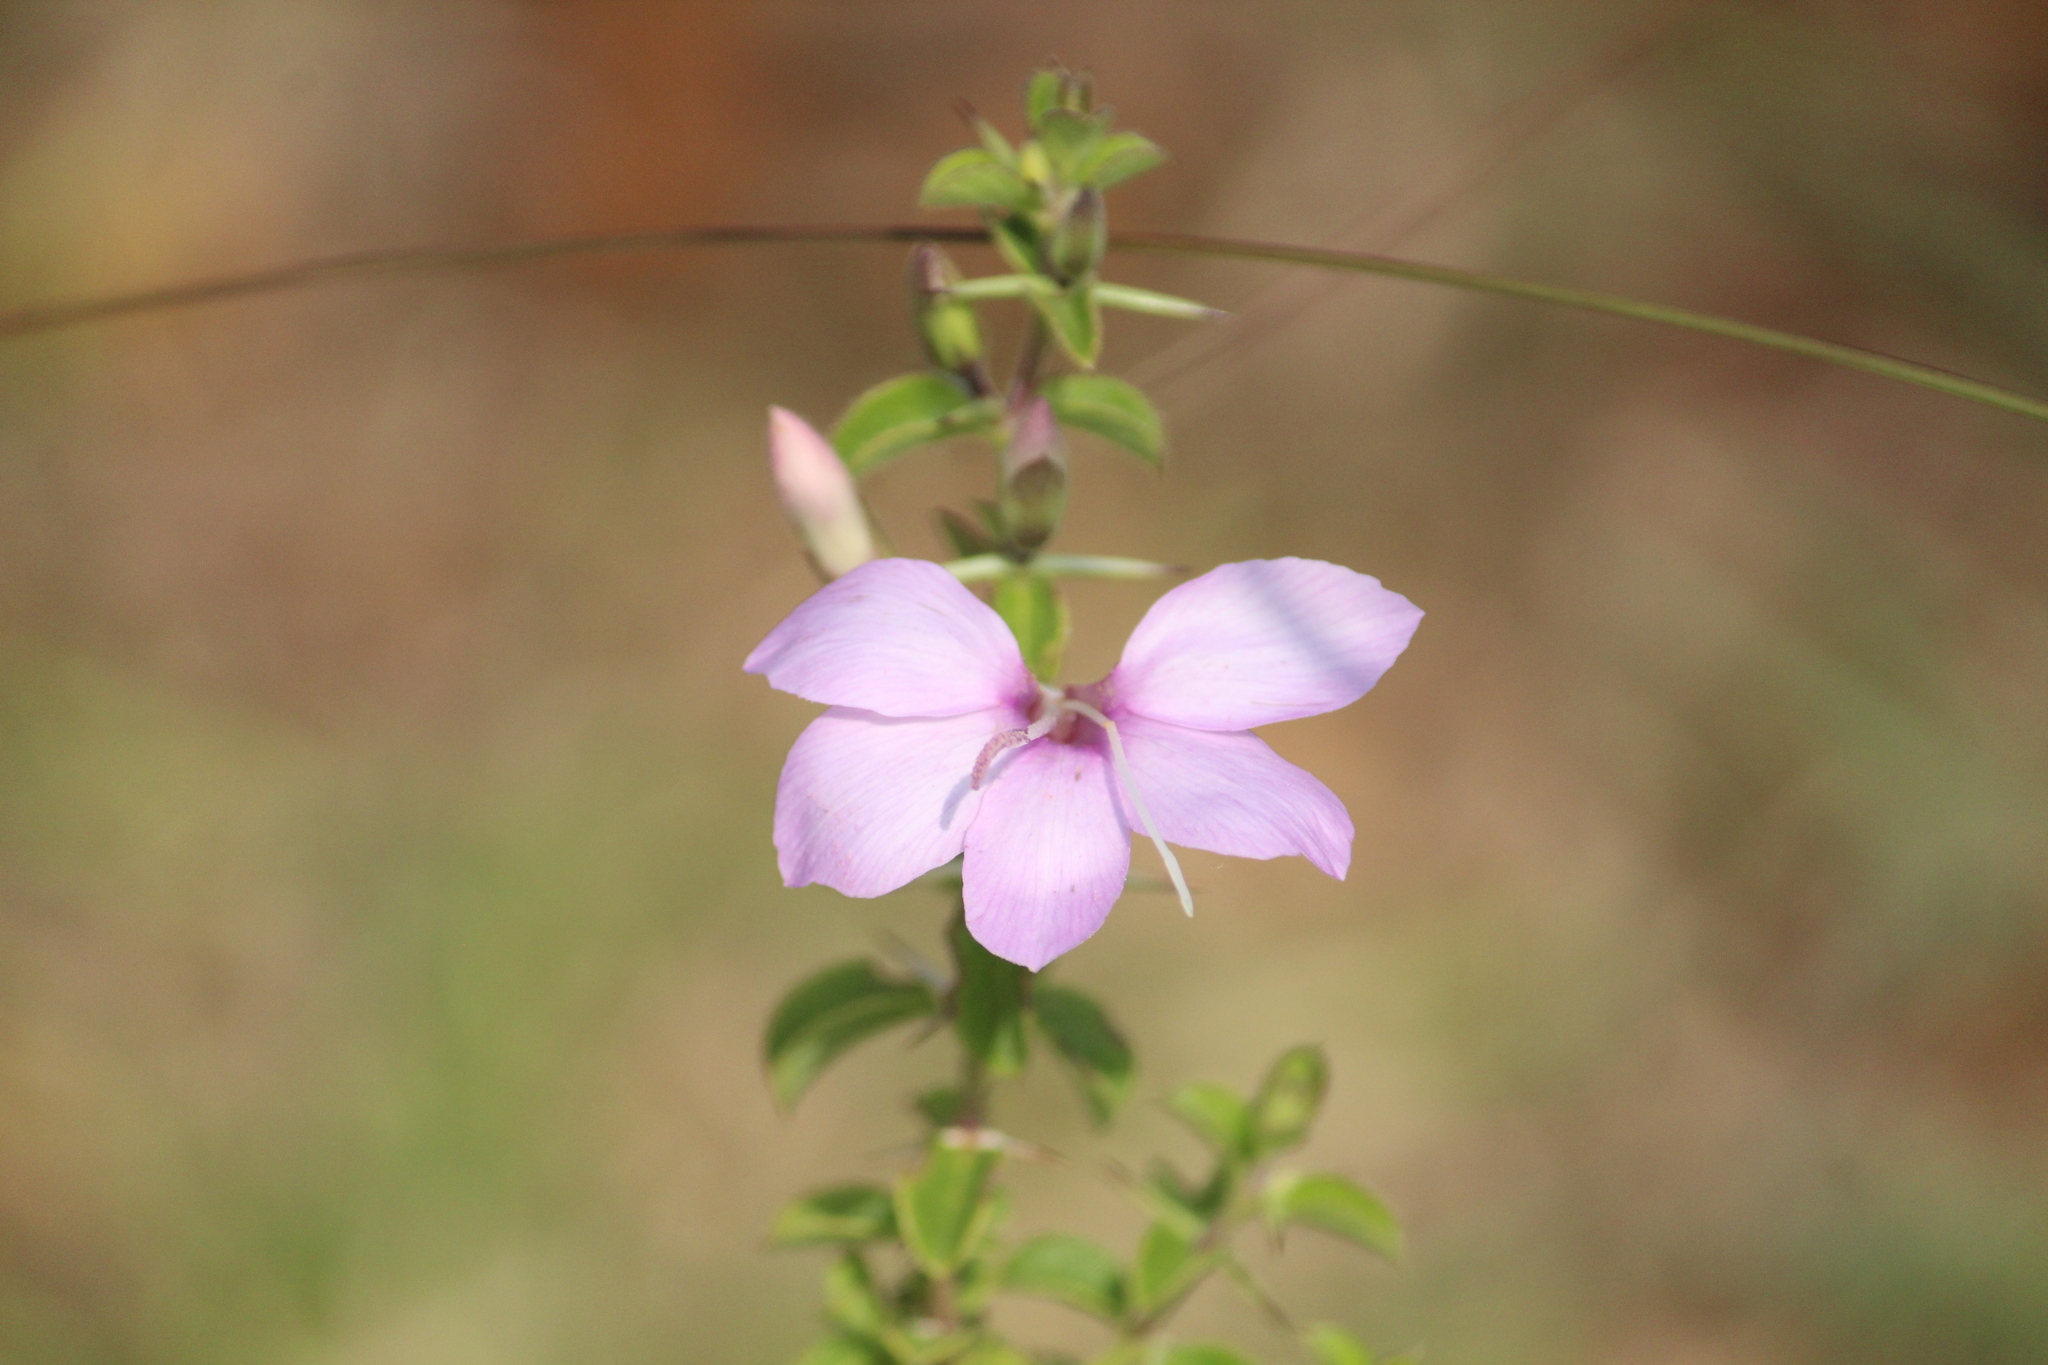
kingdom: Plantae
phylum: Tracheophyta
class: Magnoliopsida
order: Lamiales
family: Acanthaceae
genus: Barleria
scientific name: Barleria mysorensis
